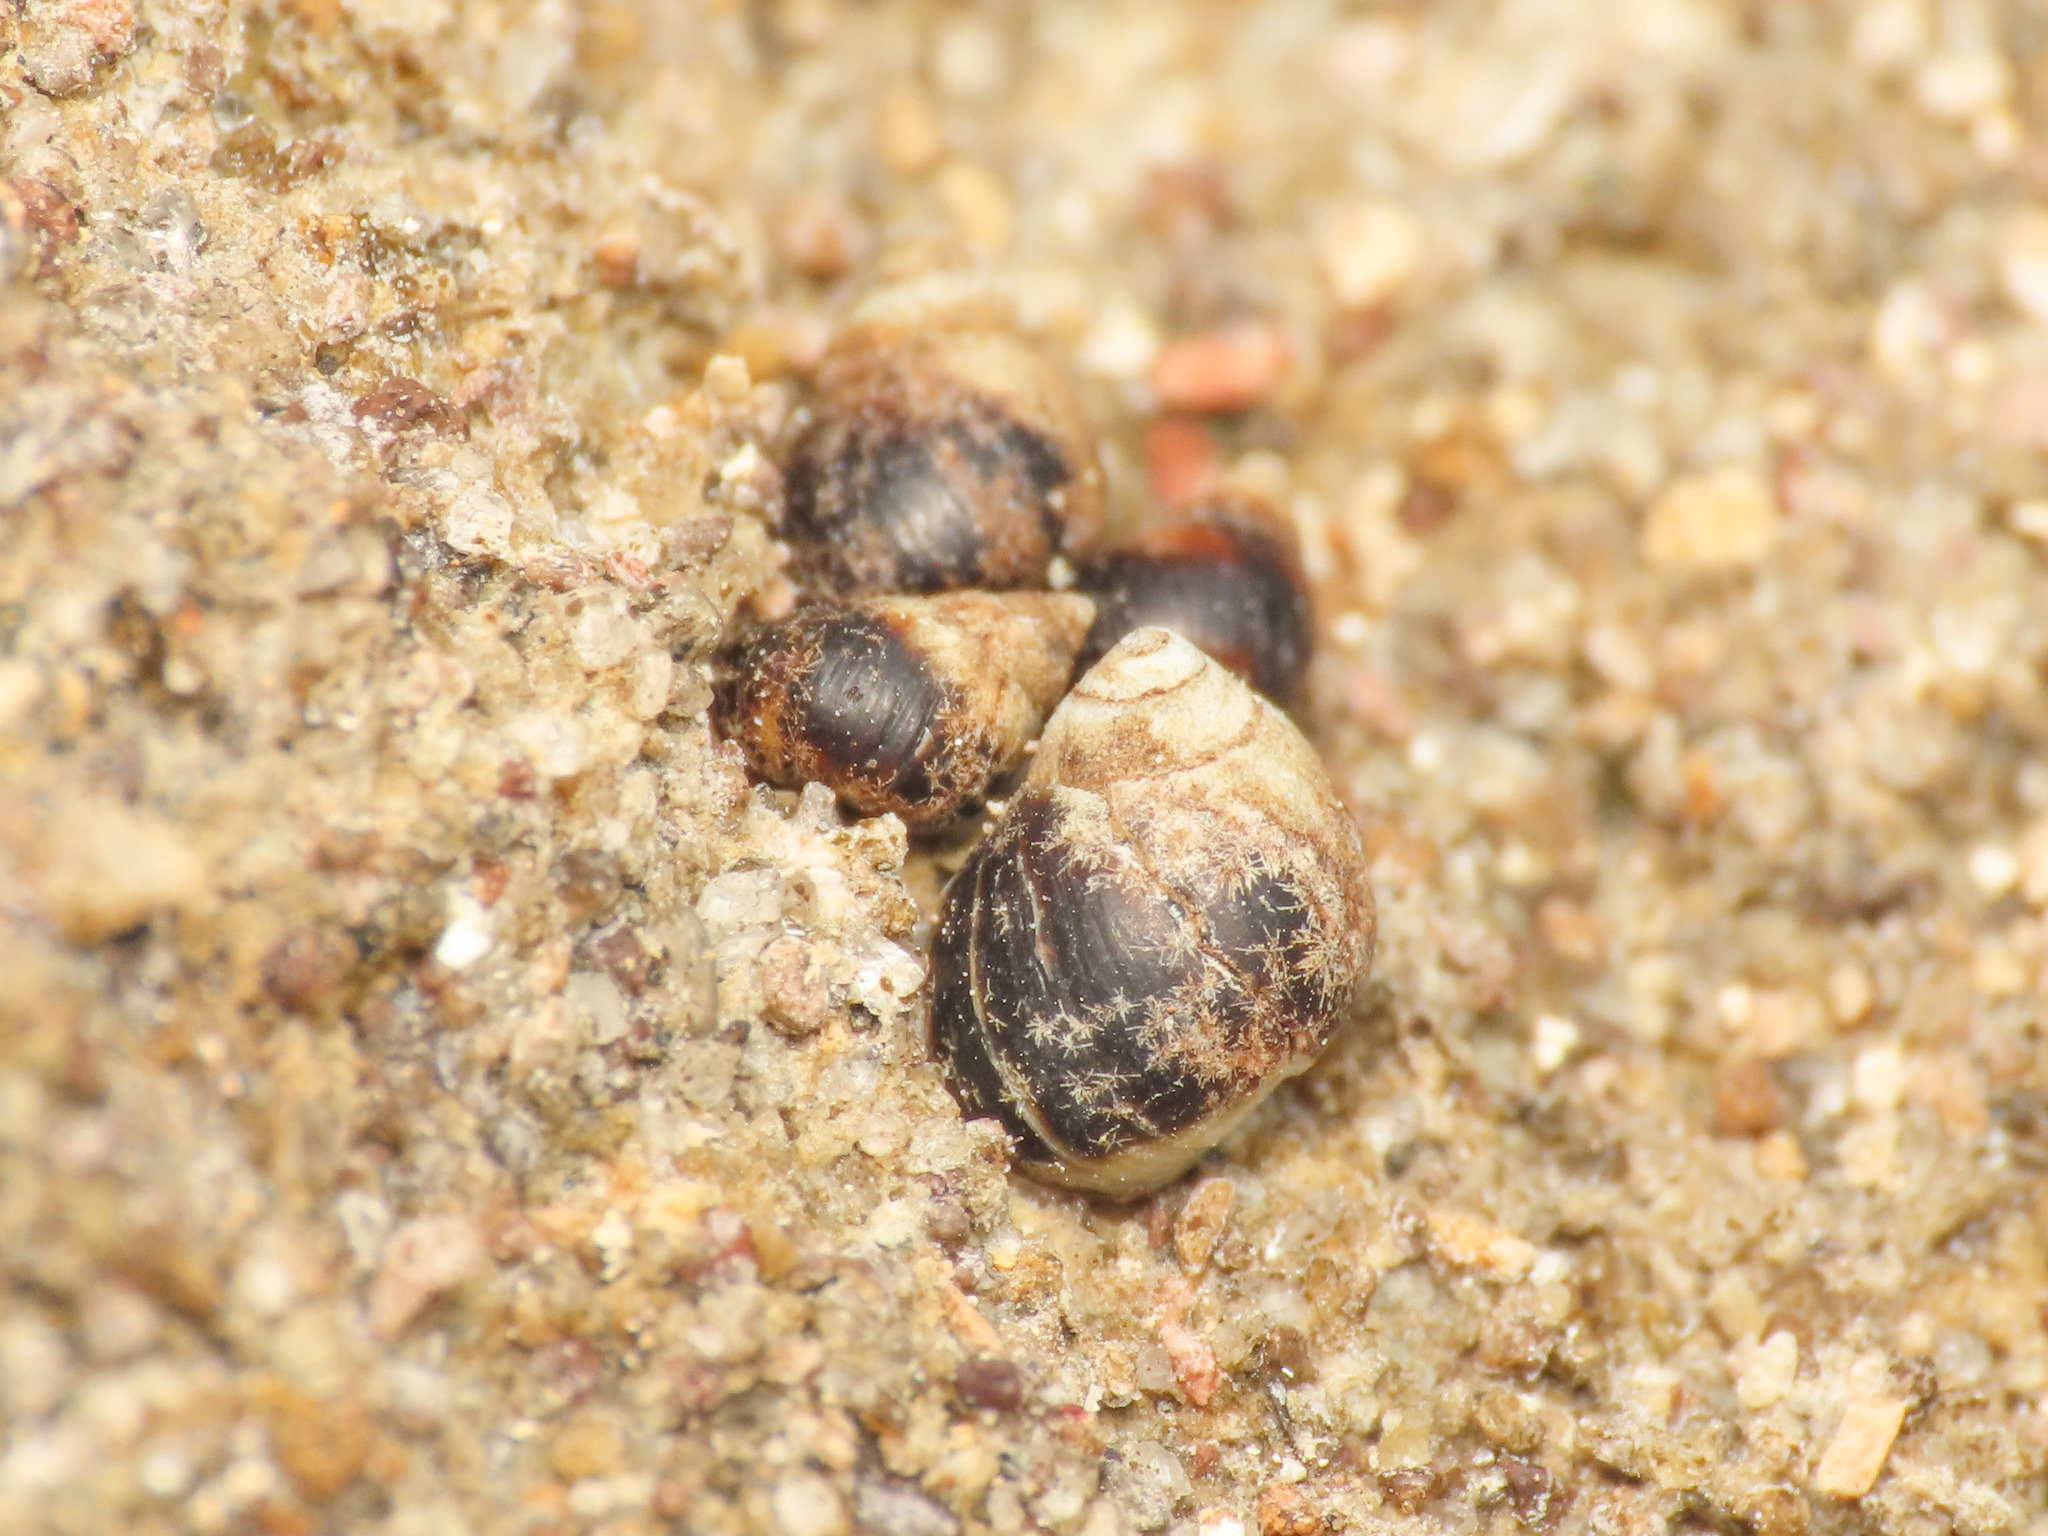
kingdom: Animalia
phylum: Mollusca
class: Gastropoda
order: Littorinimorpha
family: Littorinidae
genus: Melarhaphe
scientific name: Melarhaphe neritoides
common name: Small periwinkle
